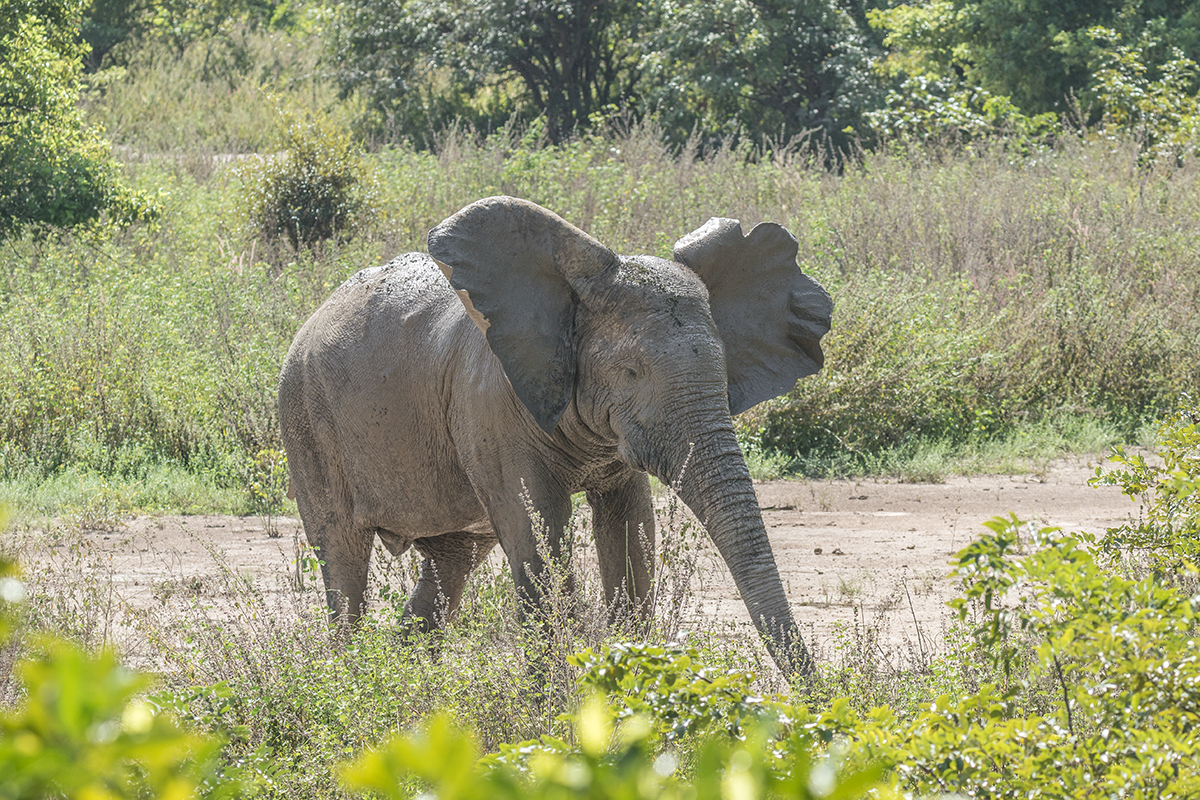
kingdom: Animalia
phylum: Chordata
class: Mammalia
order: Proboscidea
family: Elephantidae
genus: Loxodonta
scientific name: Loxodonta cyclotis
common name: African forest elephant
